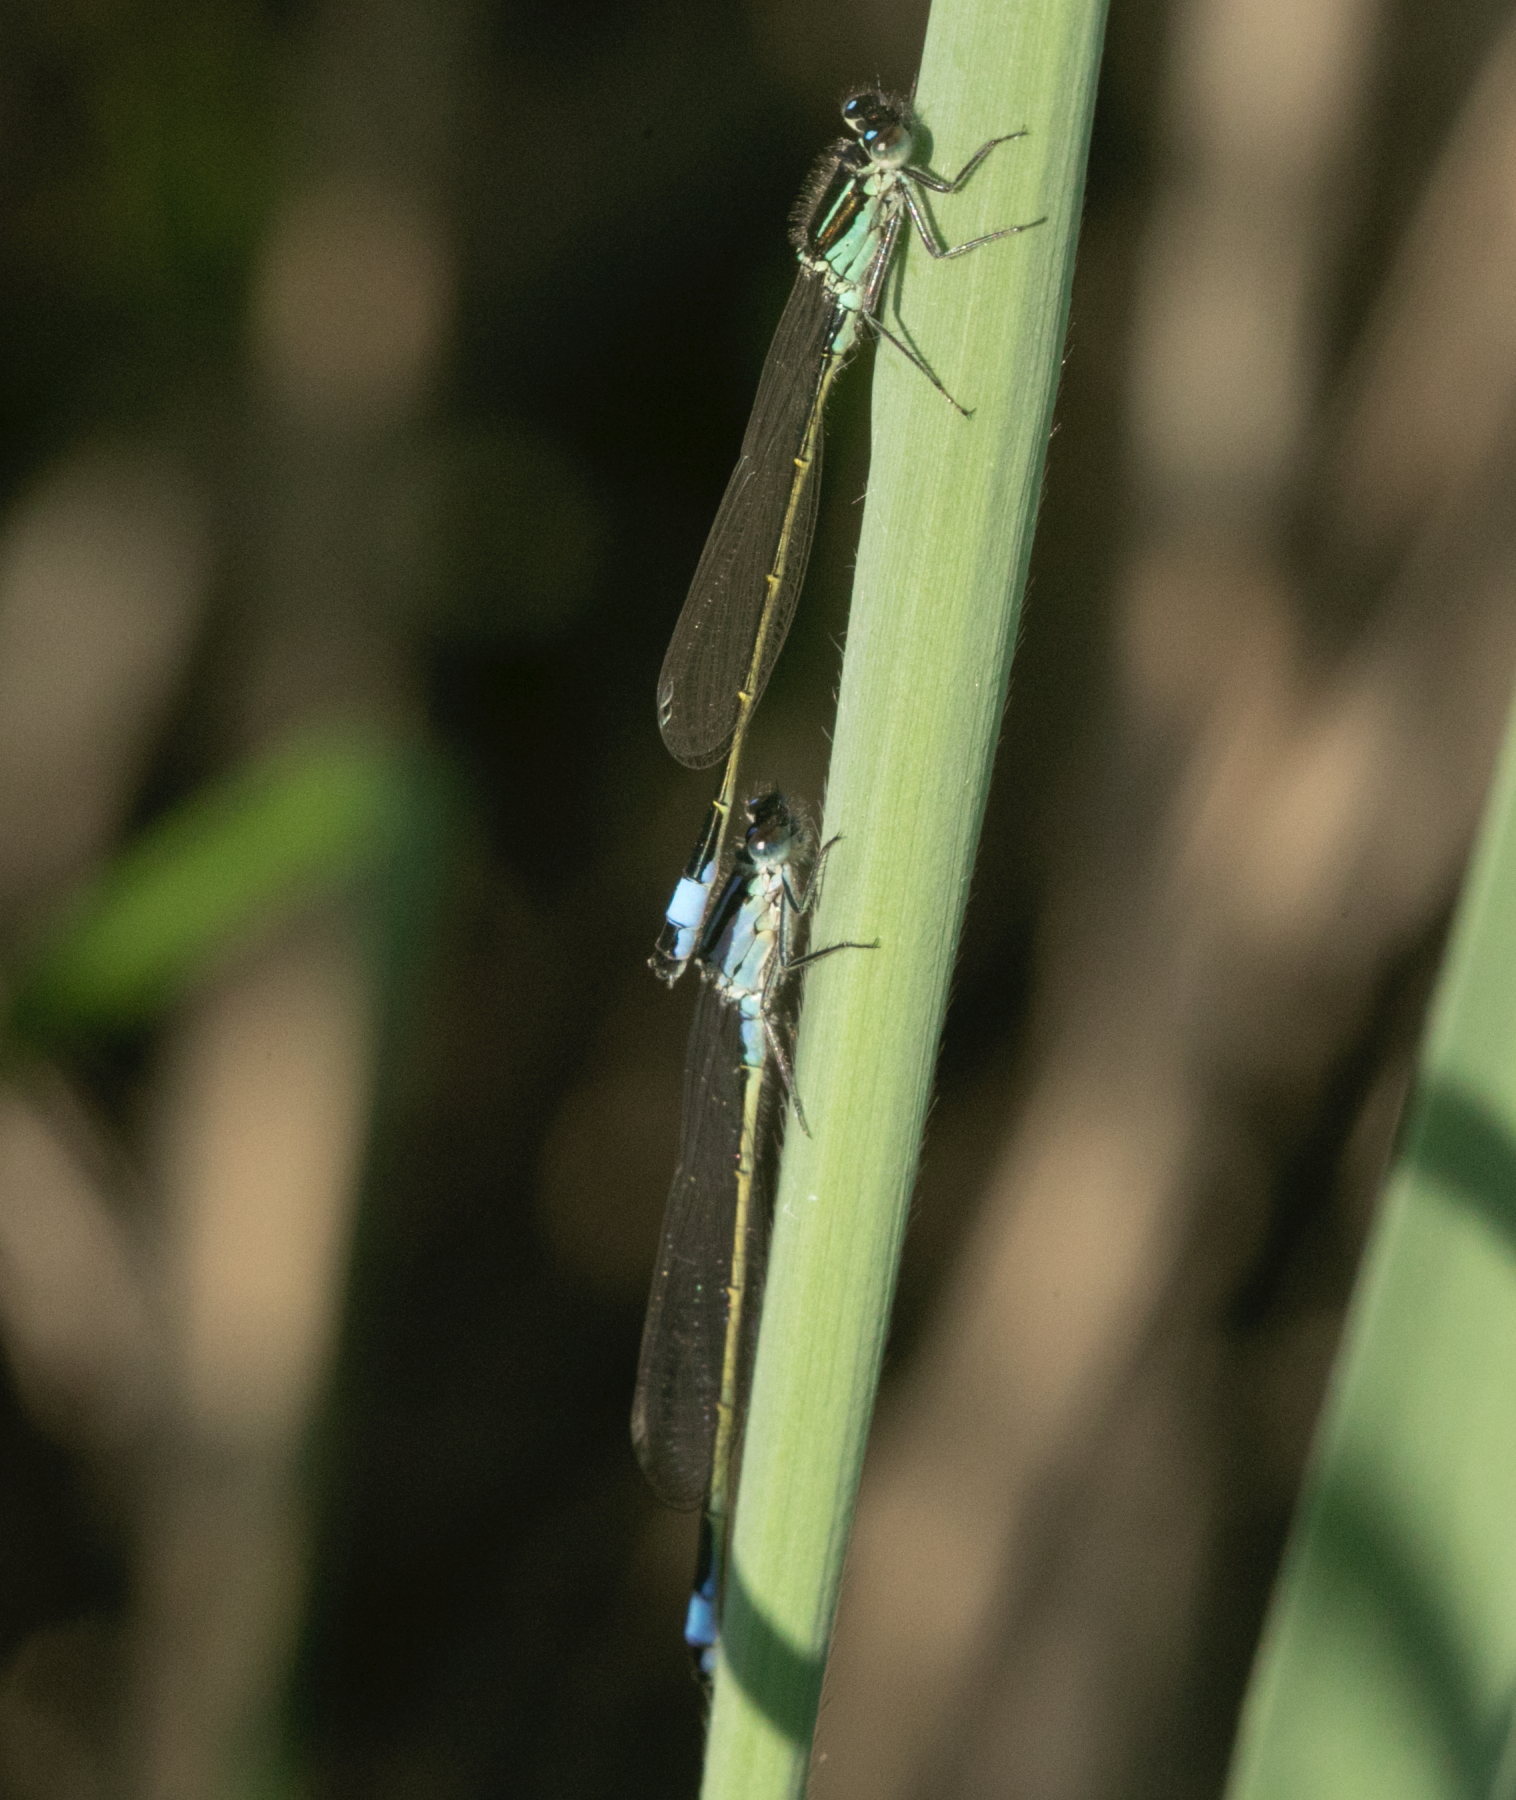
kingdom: Animalia
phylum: Arthropoda
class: Insecta
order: Odonata
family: Coenagrionidae
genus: Ischnura
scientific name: Ischnura elegans
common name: Blue-tailed damselfly
